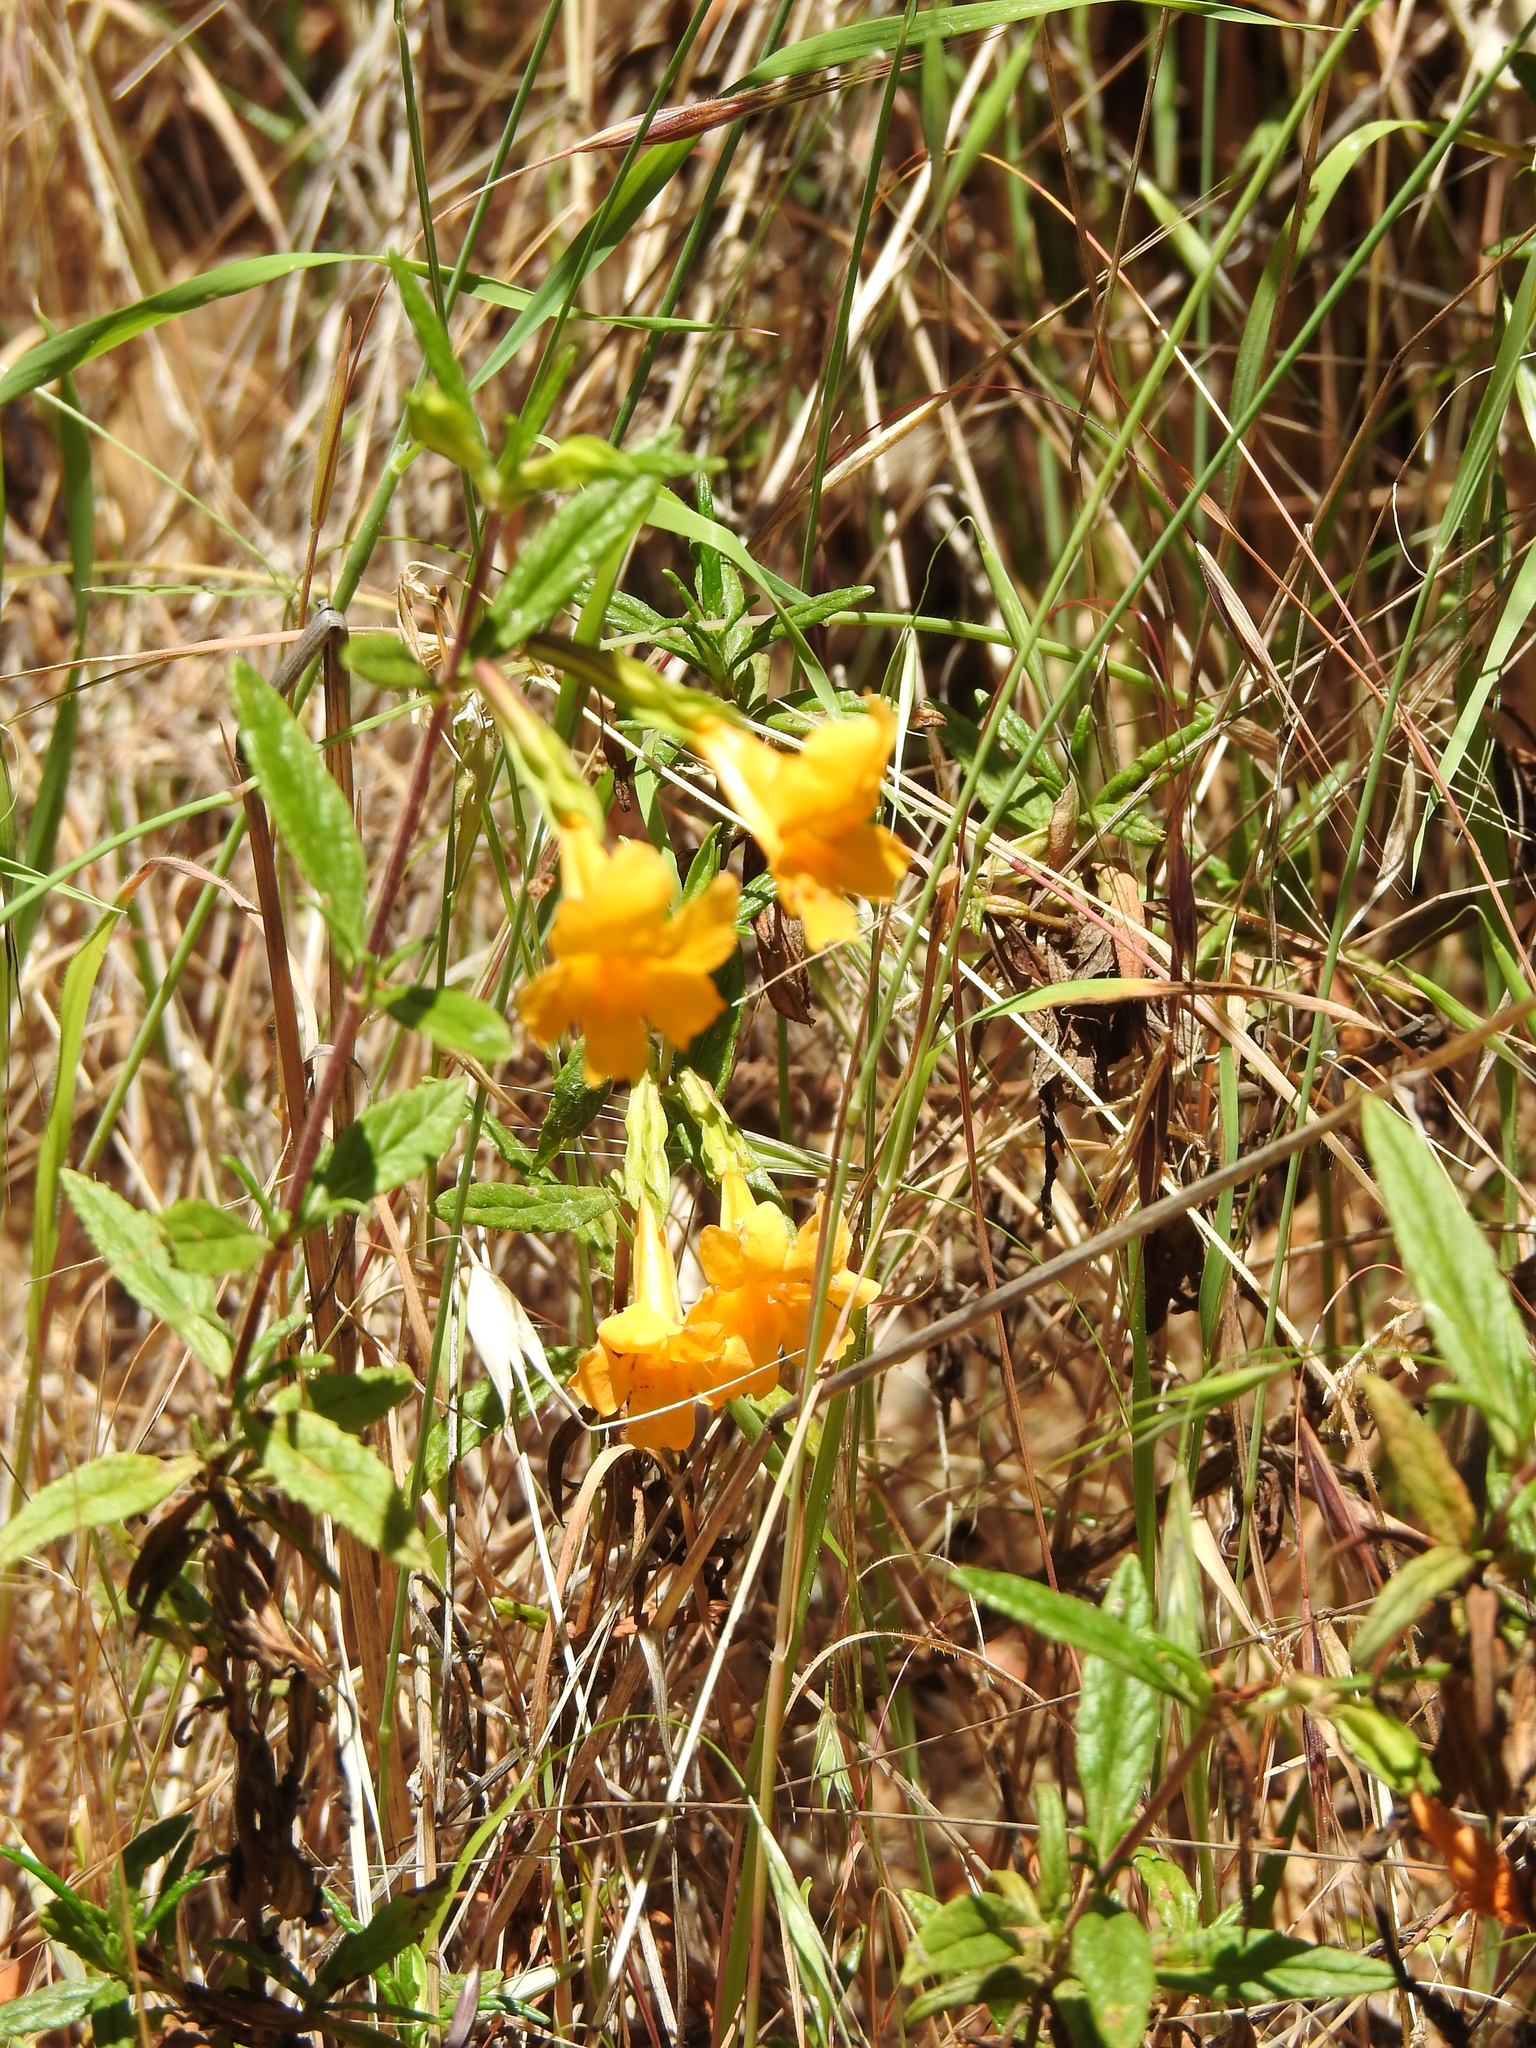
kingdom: Plantae
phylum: Tracheophyta
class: Magnoliopsida
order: Lamiales
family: Phrymaceae
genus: Diplacus
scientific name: Diplacus aurantiacus
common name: Bush monkey-flower
